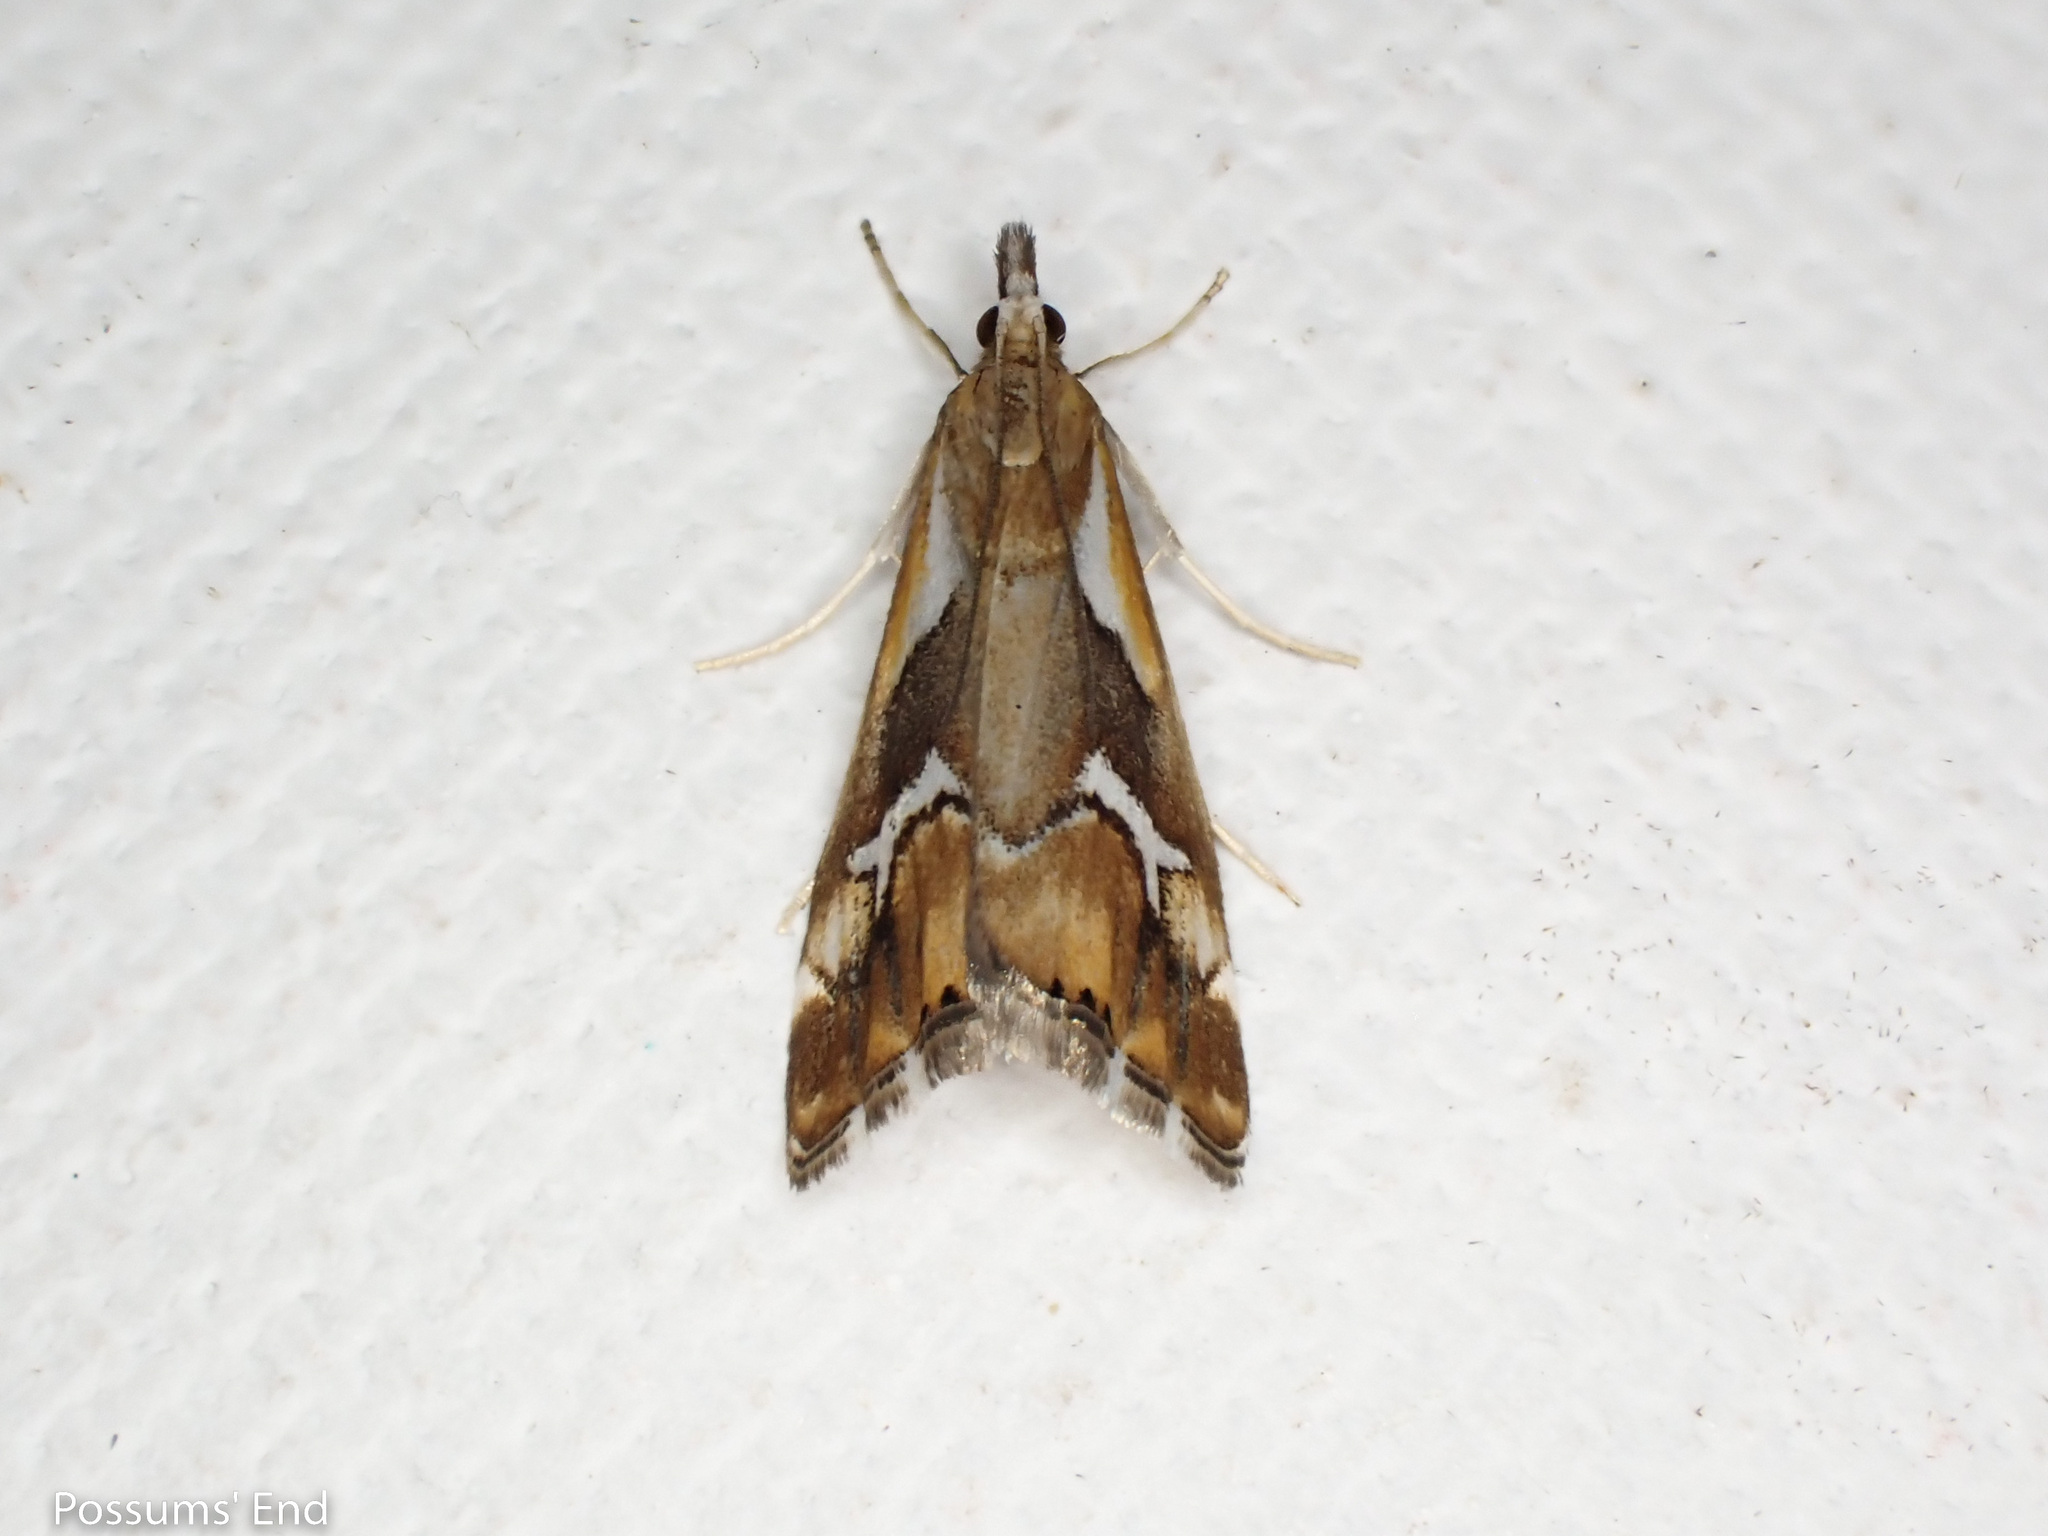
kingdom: Animalia
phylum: Arthropoda
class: Insecta
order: Lepidoptera
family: Crambidae
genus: Glaucocharis
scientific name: Glaucocharis interruptus
